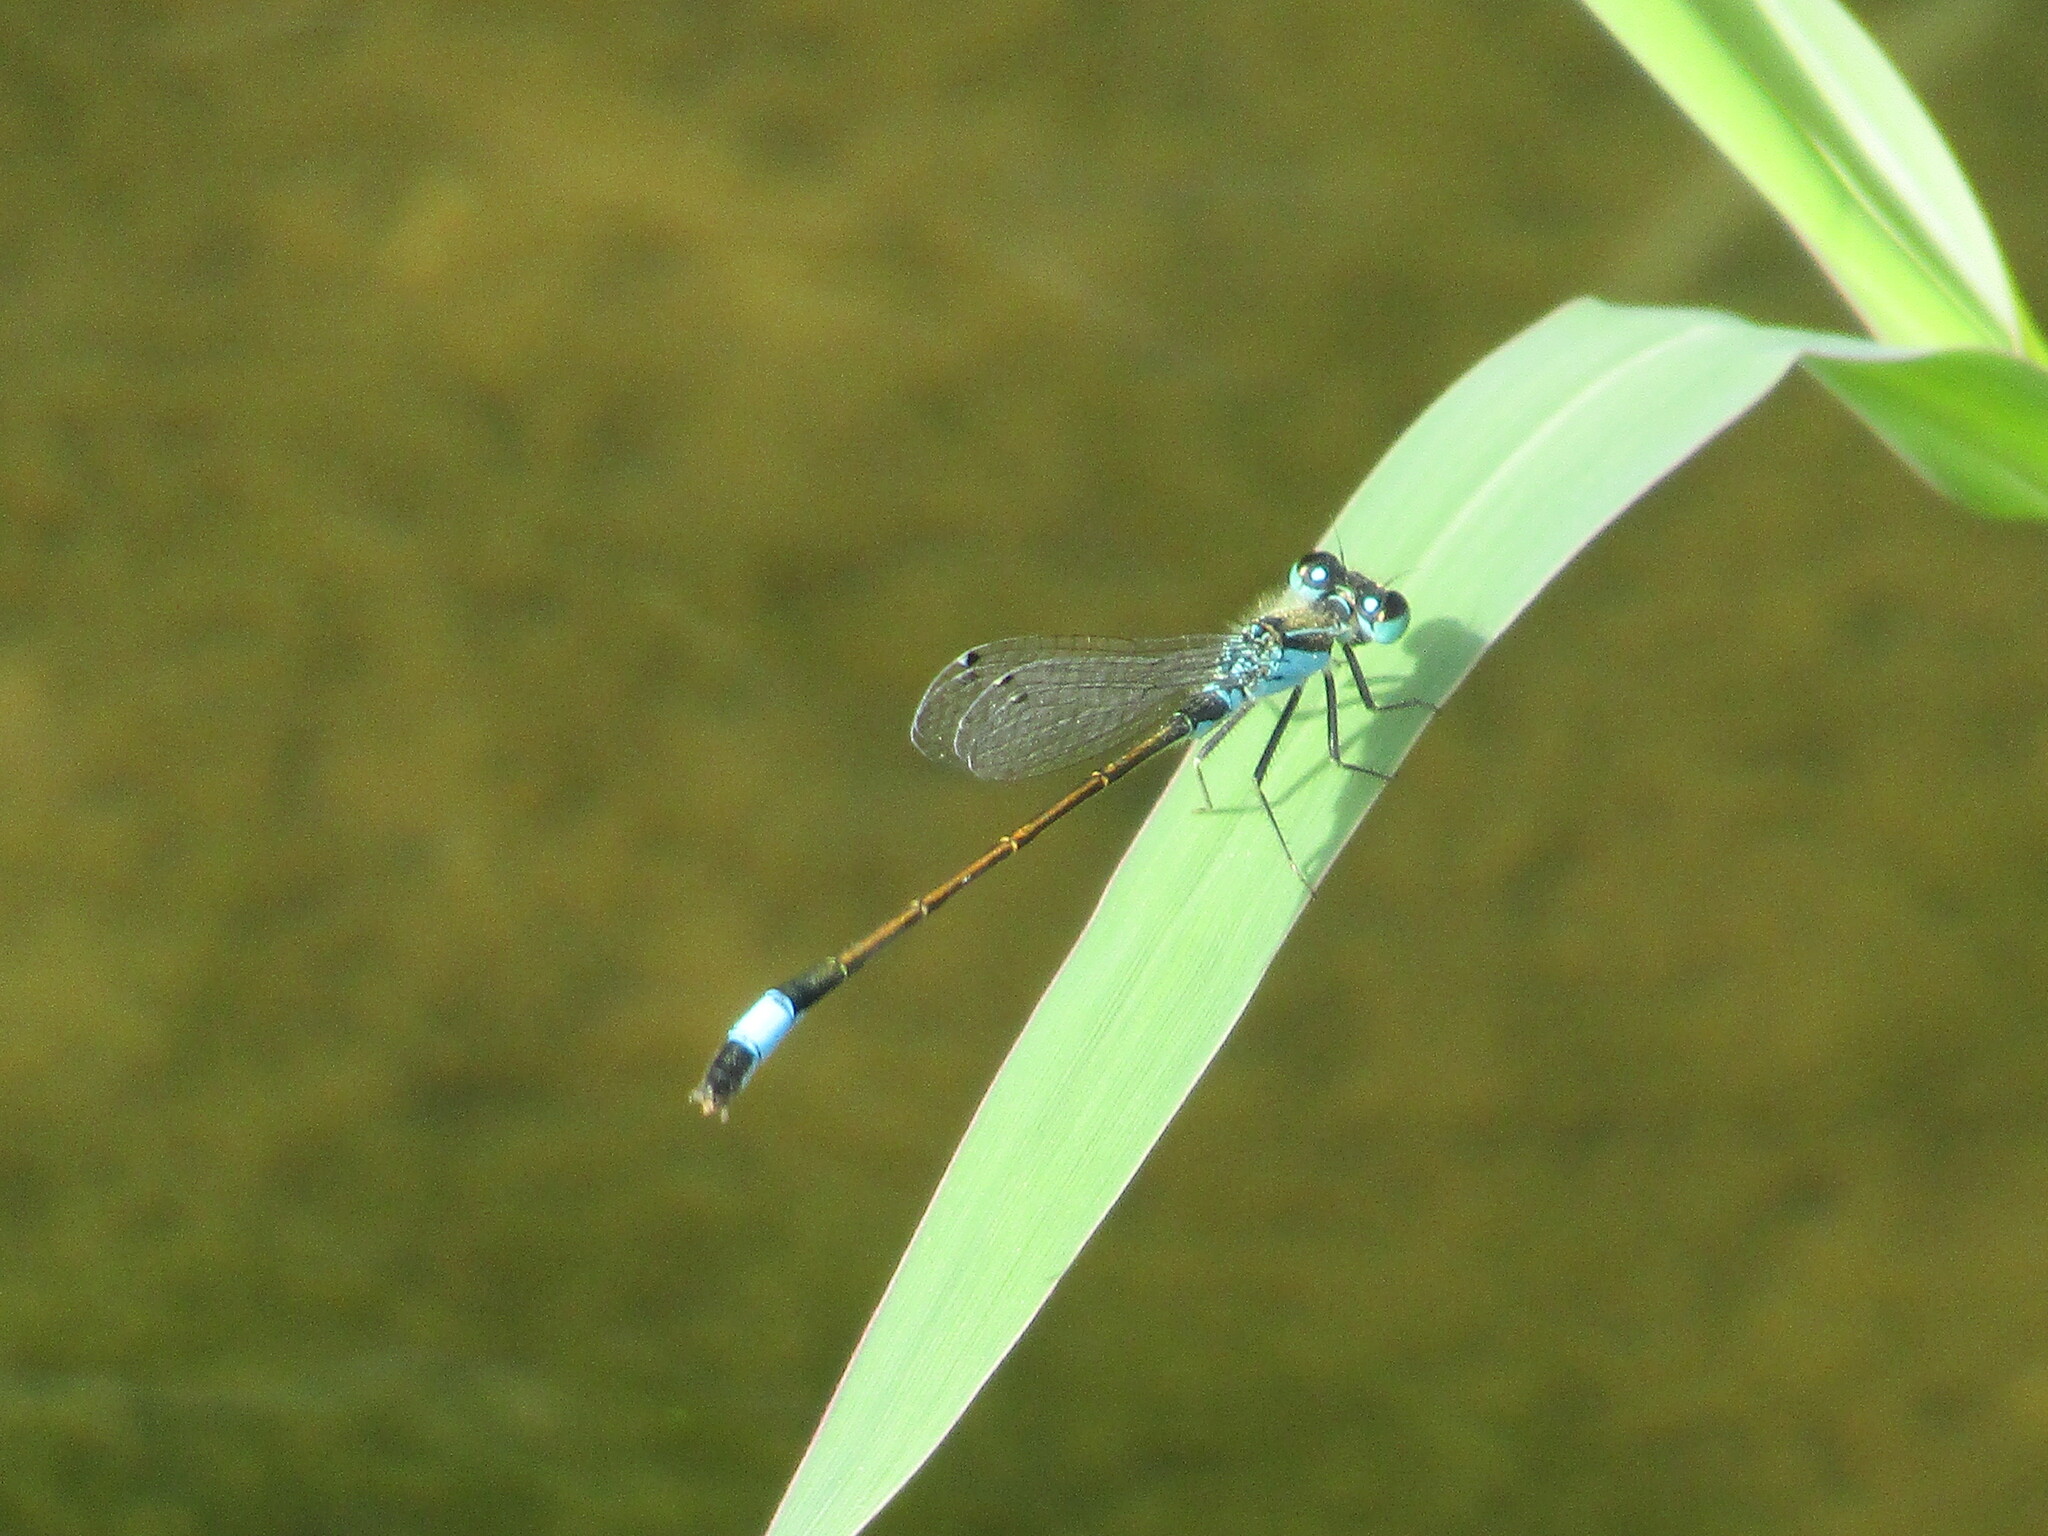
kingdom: Animalia
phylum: Arthropoda
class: Insecta
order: Odonata
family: Coenagrionidae
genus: Ischnura
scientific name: Ischnura elegans
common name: Blue-tailed damselfly
